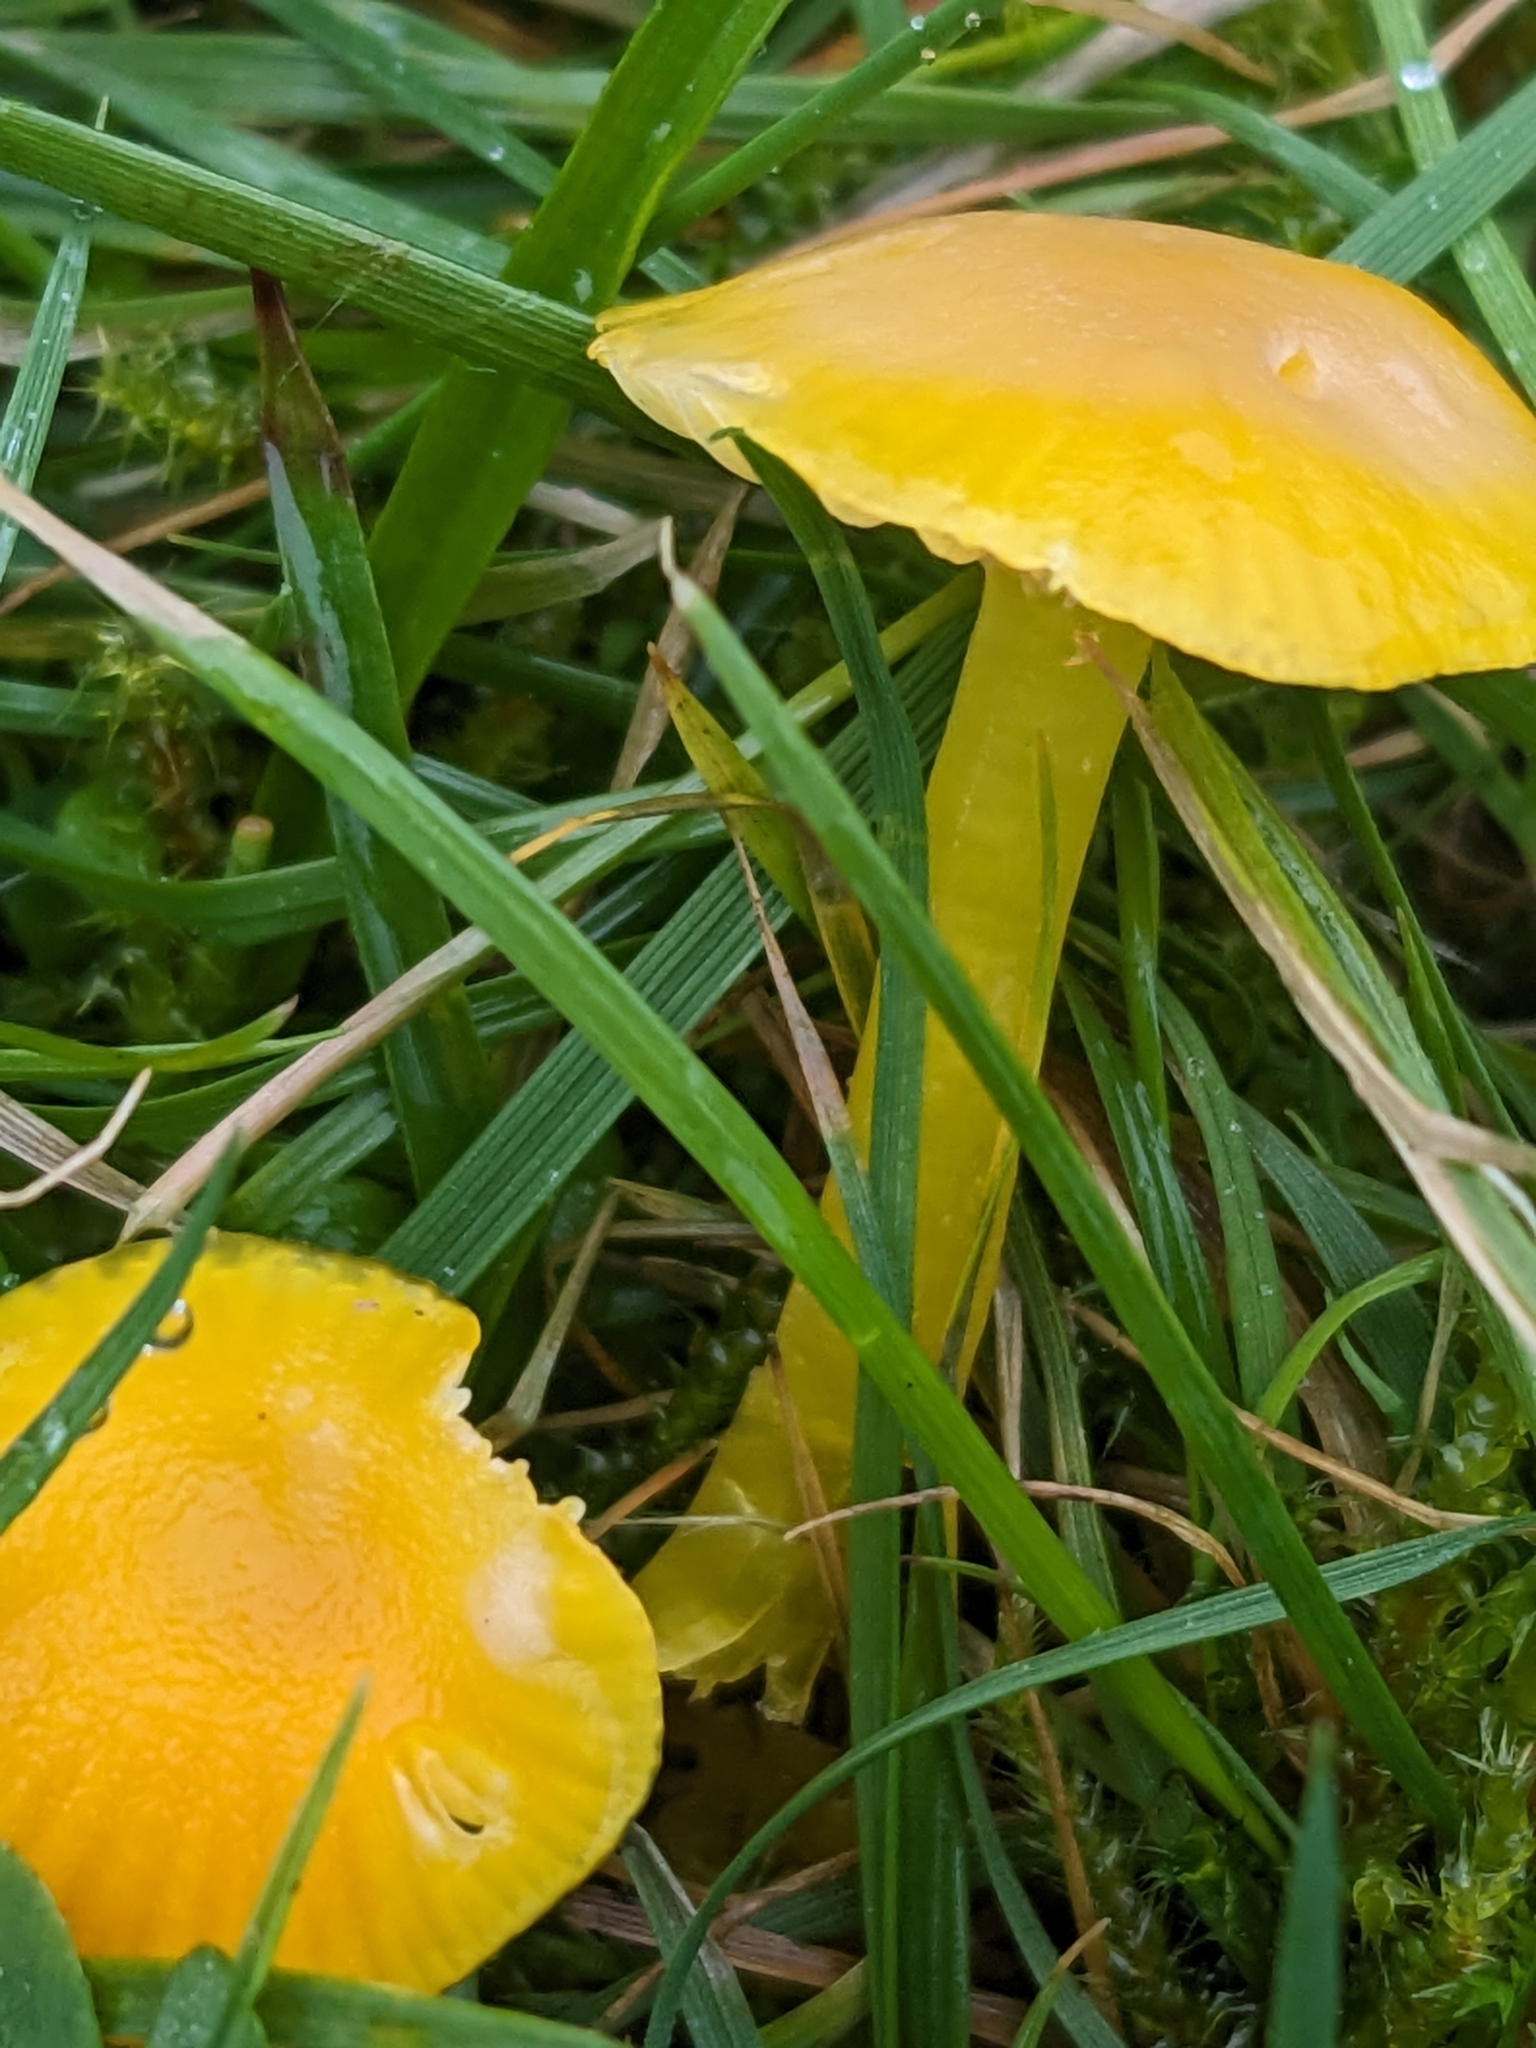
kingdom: Fungi
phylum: Basidiomycota
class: Agaricomycetes
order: Agaricales
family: Hygrophoraceae
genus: Hygrocybe
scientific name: Hygrocybe ceracea
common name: Butter waxcap
